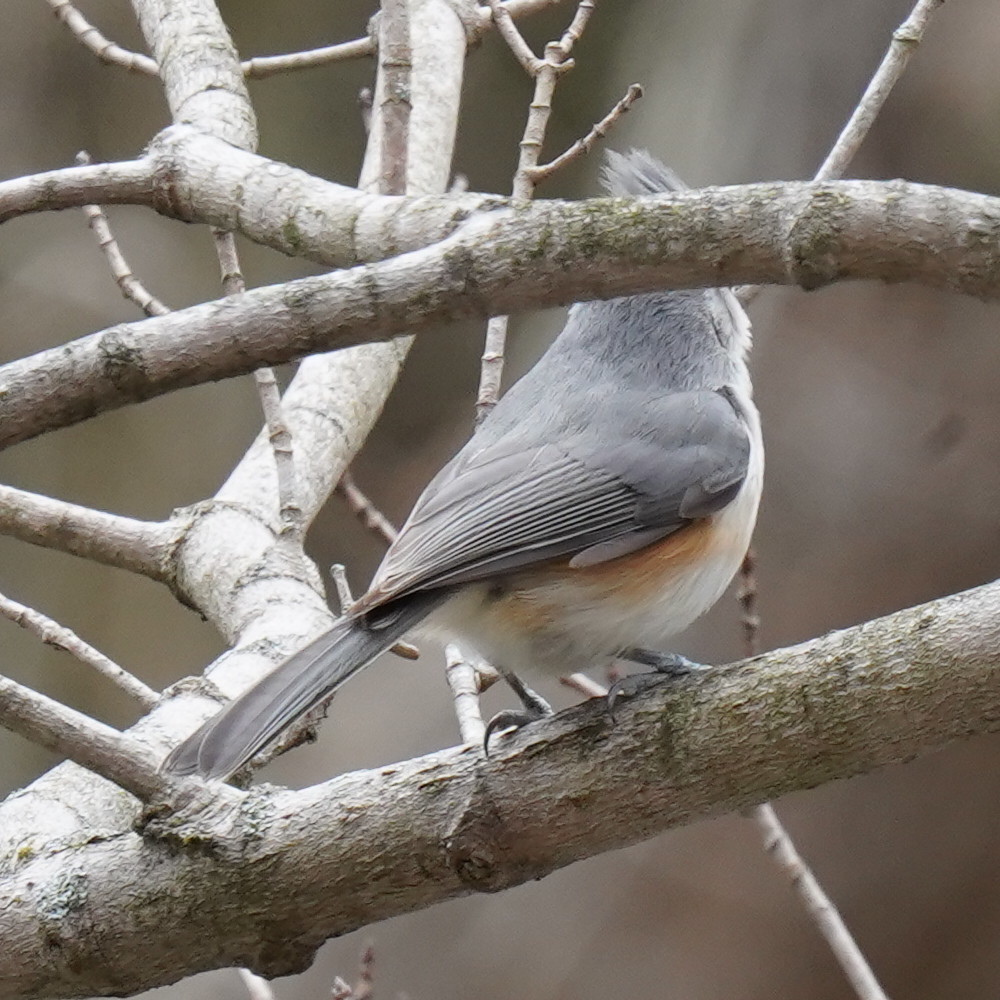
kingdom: Animalia
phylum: Chordata
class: Aves
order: Passeriformes
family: Paridae
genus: Baeolophus
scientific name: Baeolophus bicolor
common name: Tufted titmouse
